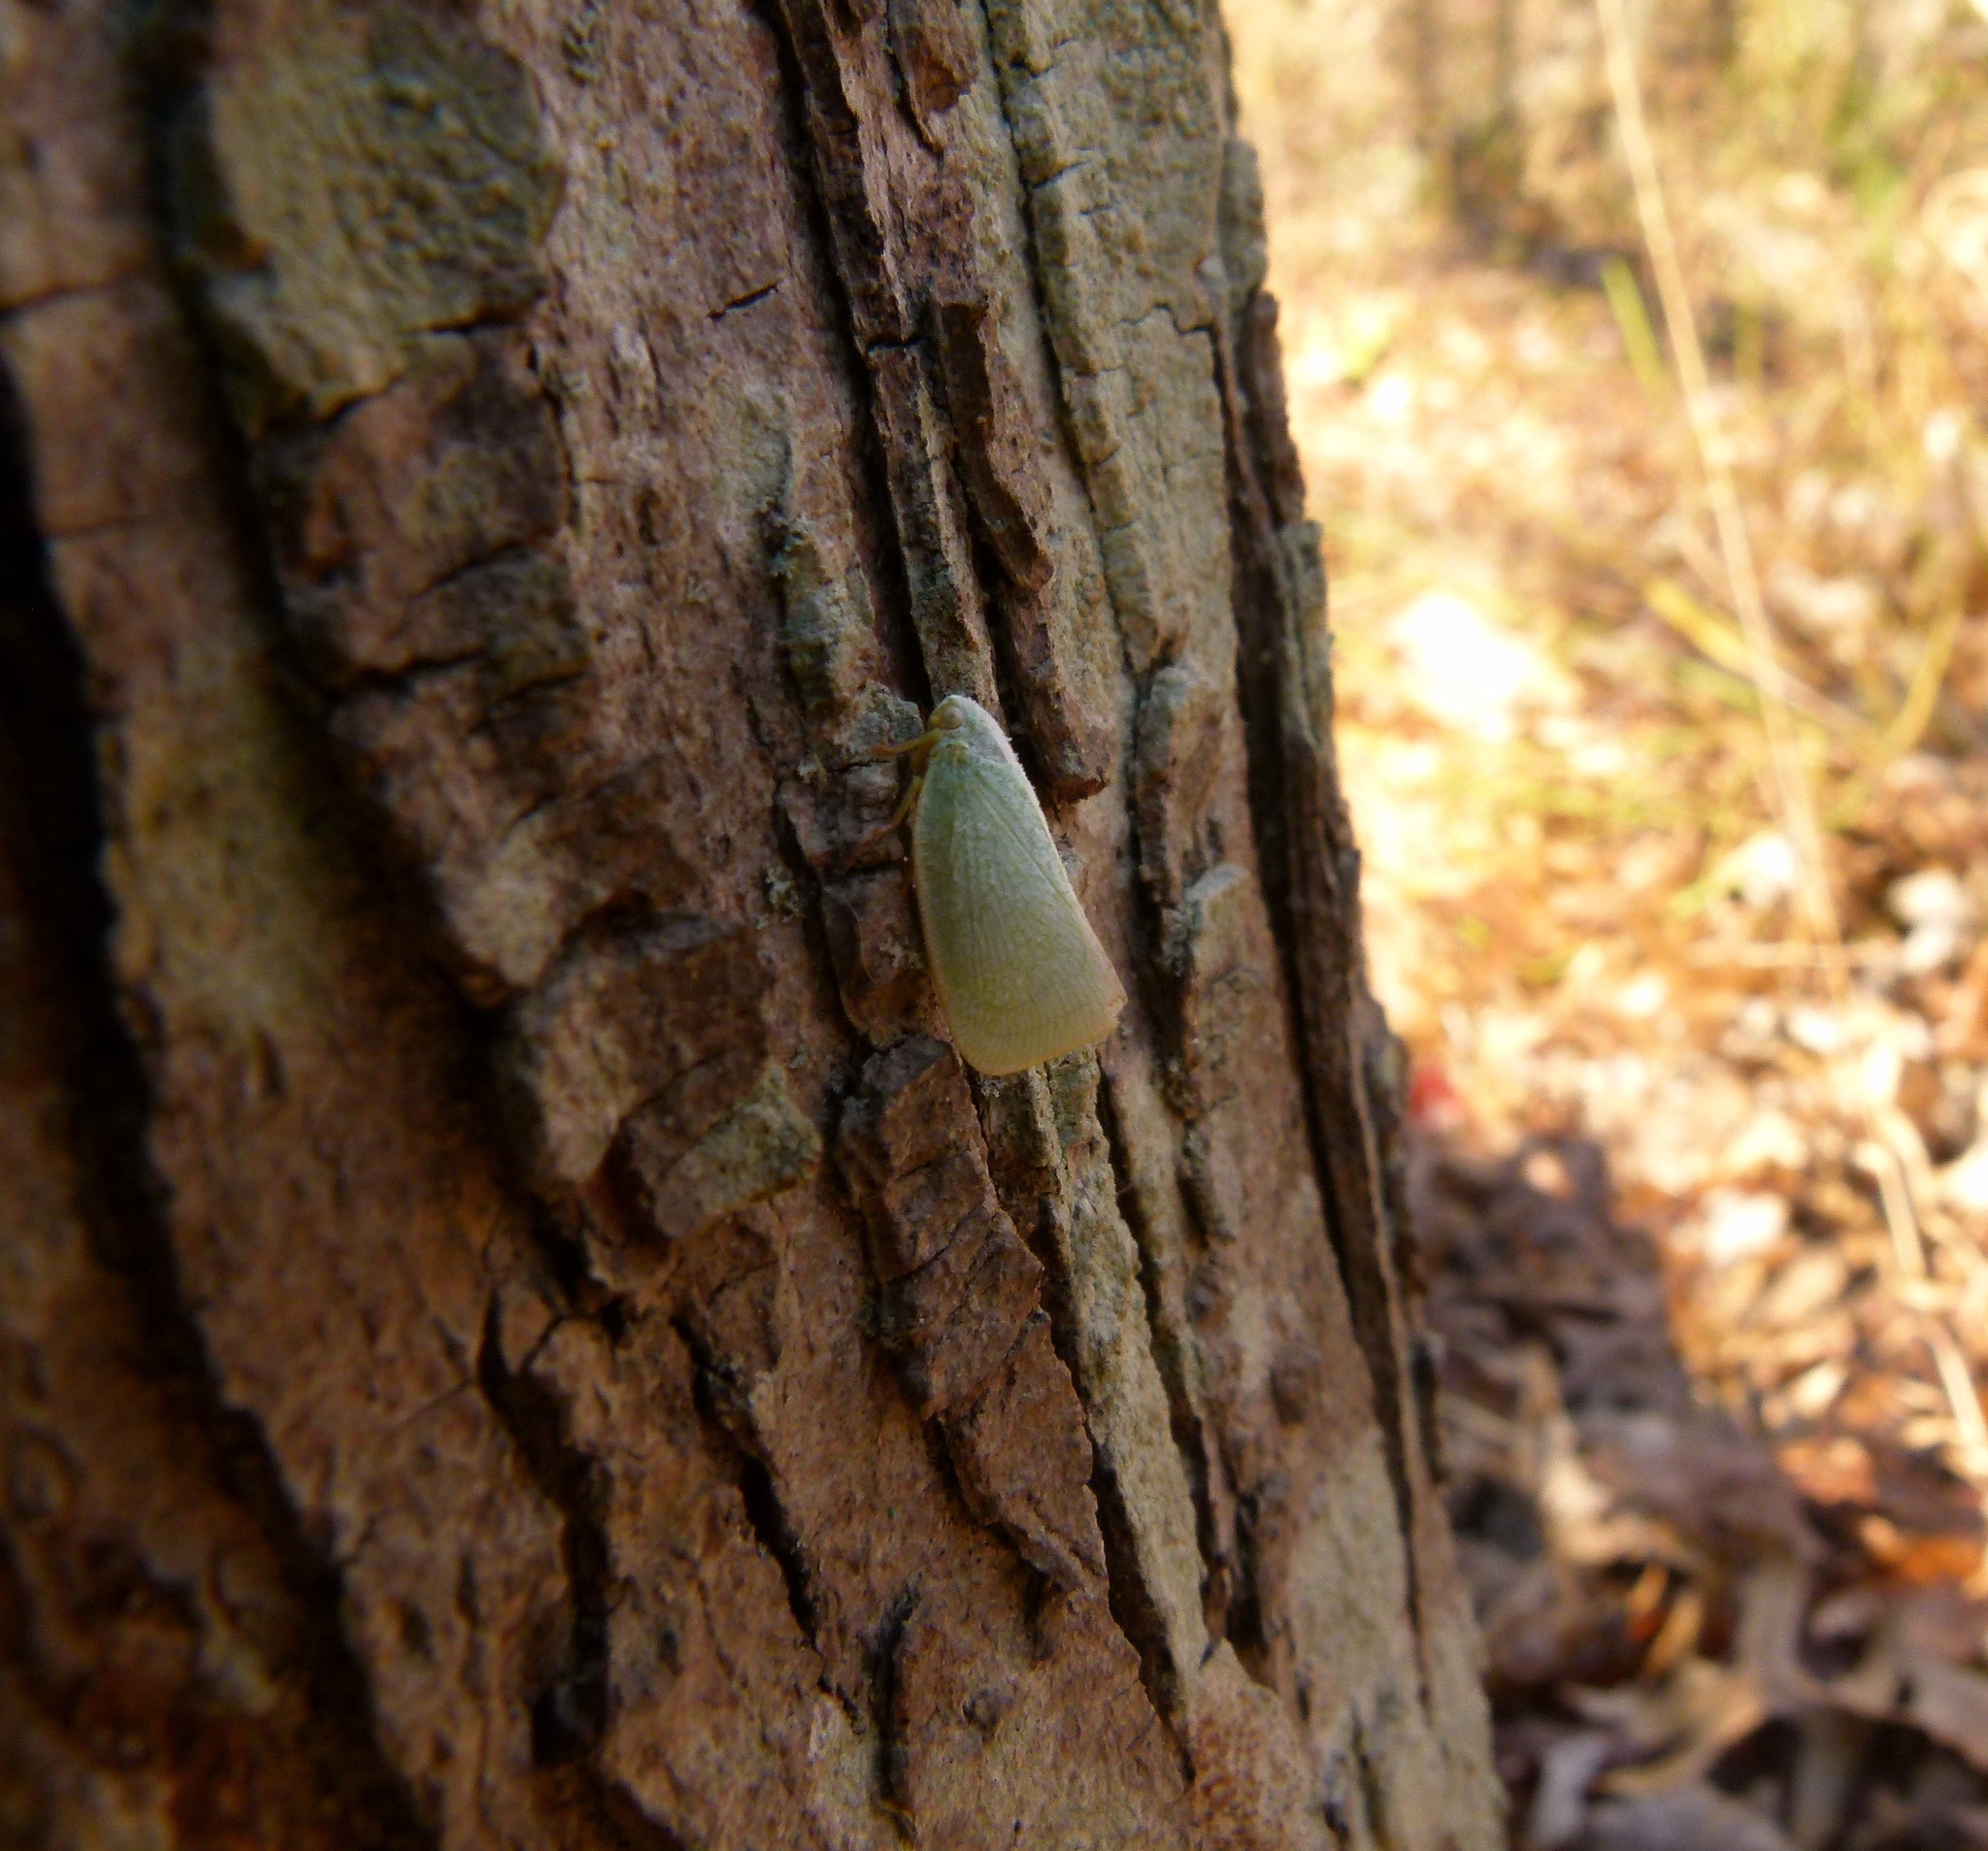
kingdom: Animalia
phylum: Arthropoda
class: Insecta
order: Hemiptera
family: Flatidae
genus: Flatormenis
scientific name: Flatormenis proxima
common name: Northern flatid planthopper
